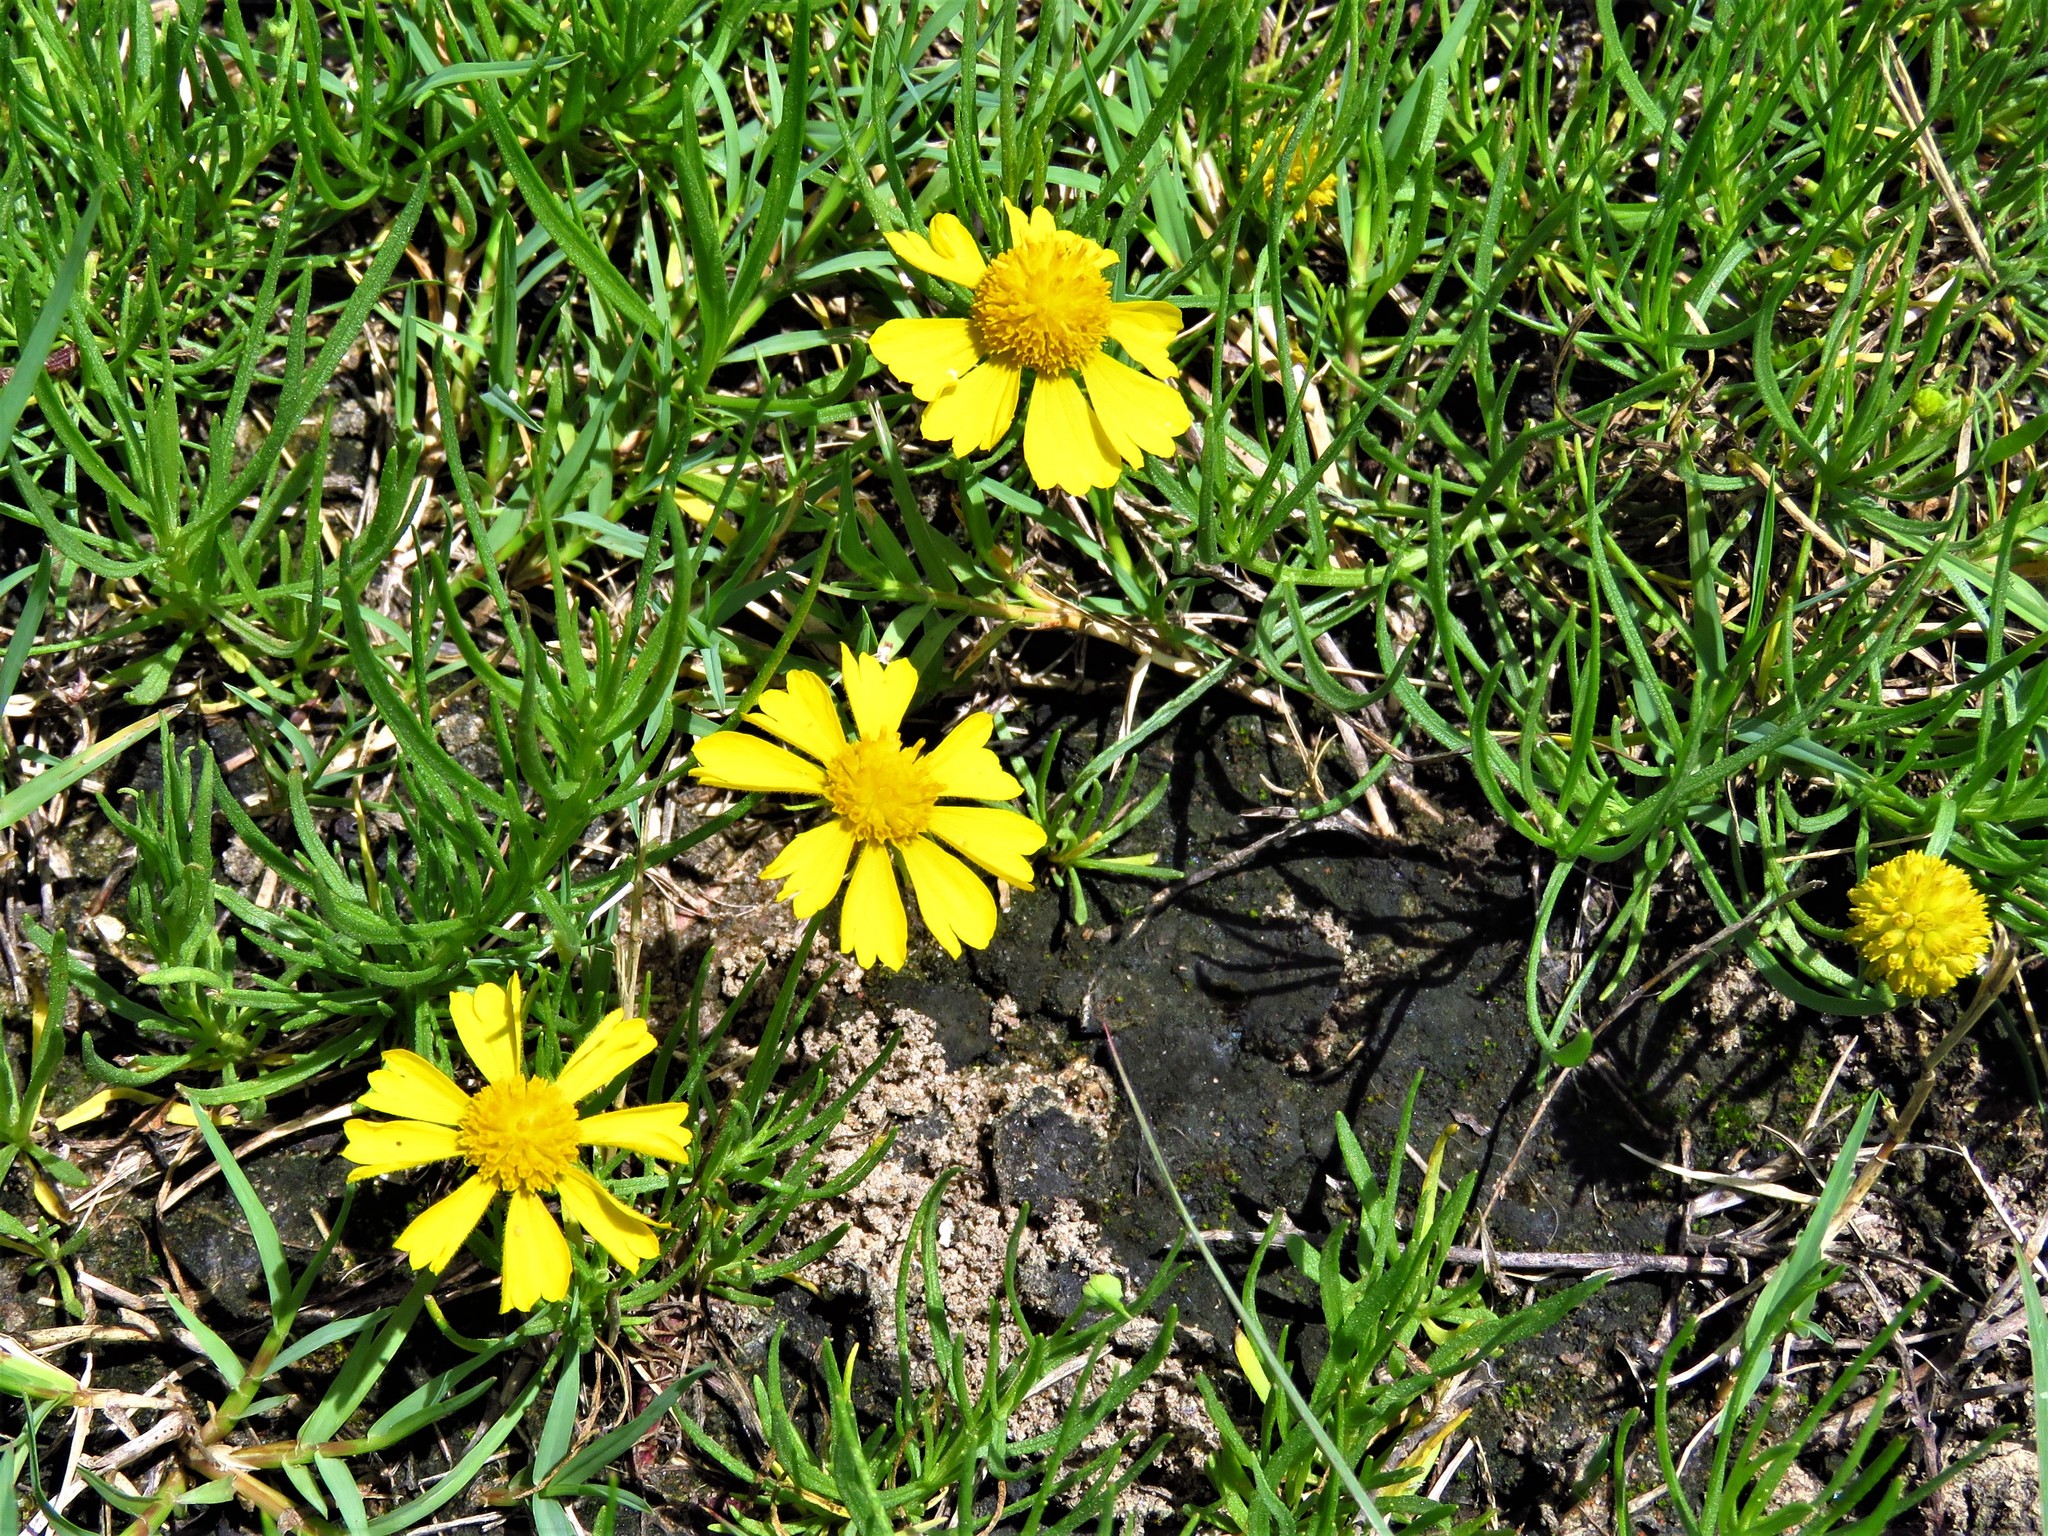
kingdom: Plantae
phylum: Tracheophyta
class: Magnoliopsida
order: Asterales
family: Asteraceae
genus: Helenium
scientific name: Helenium amarum
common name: Bitter sneezeweed
